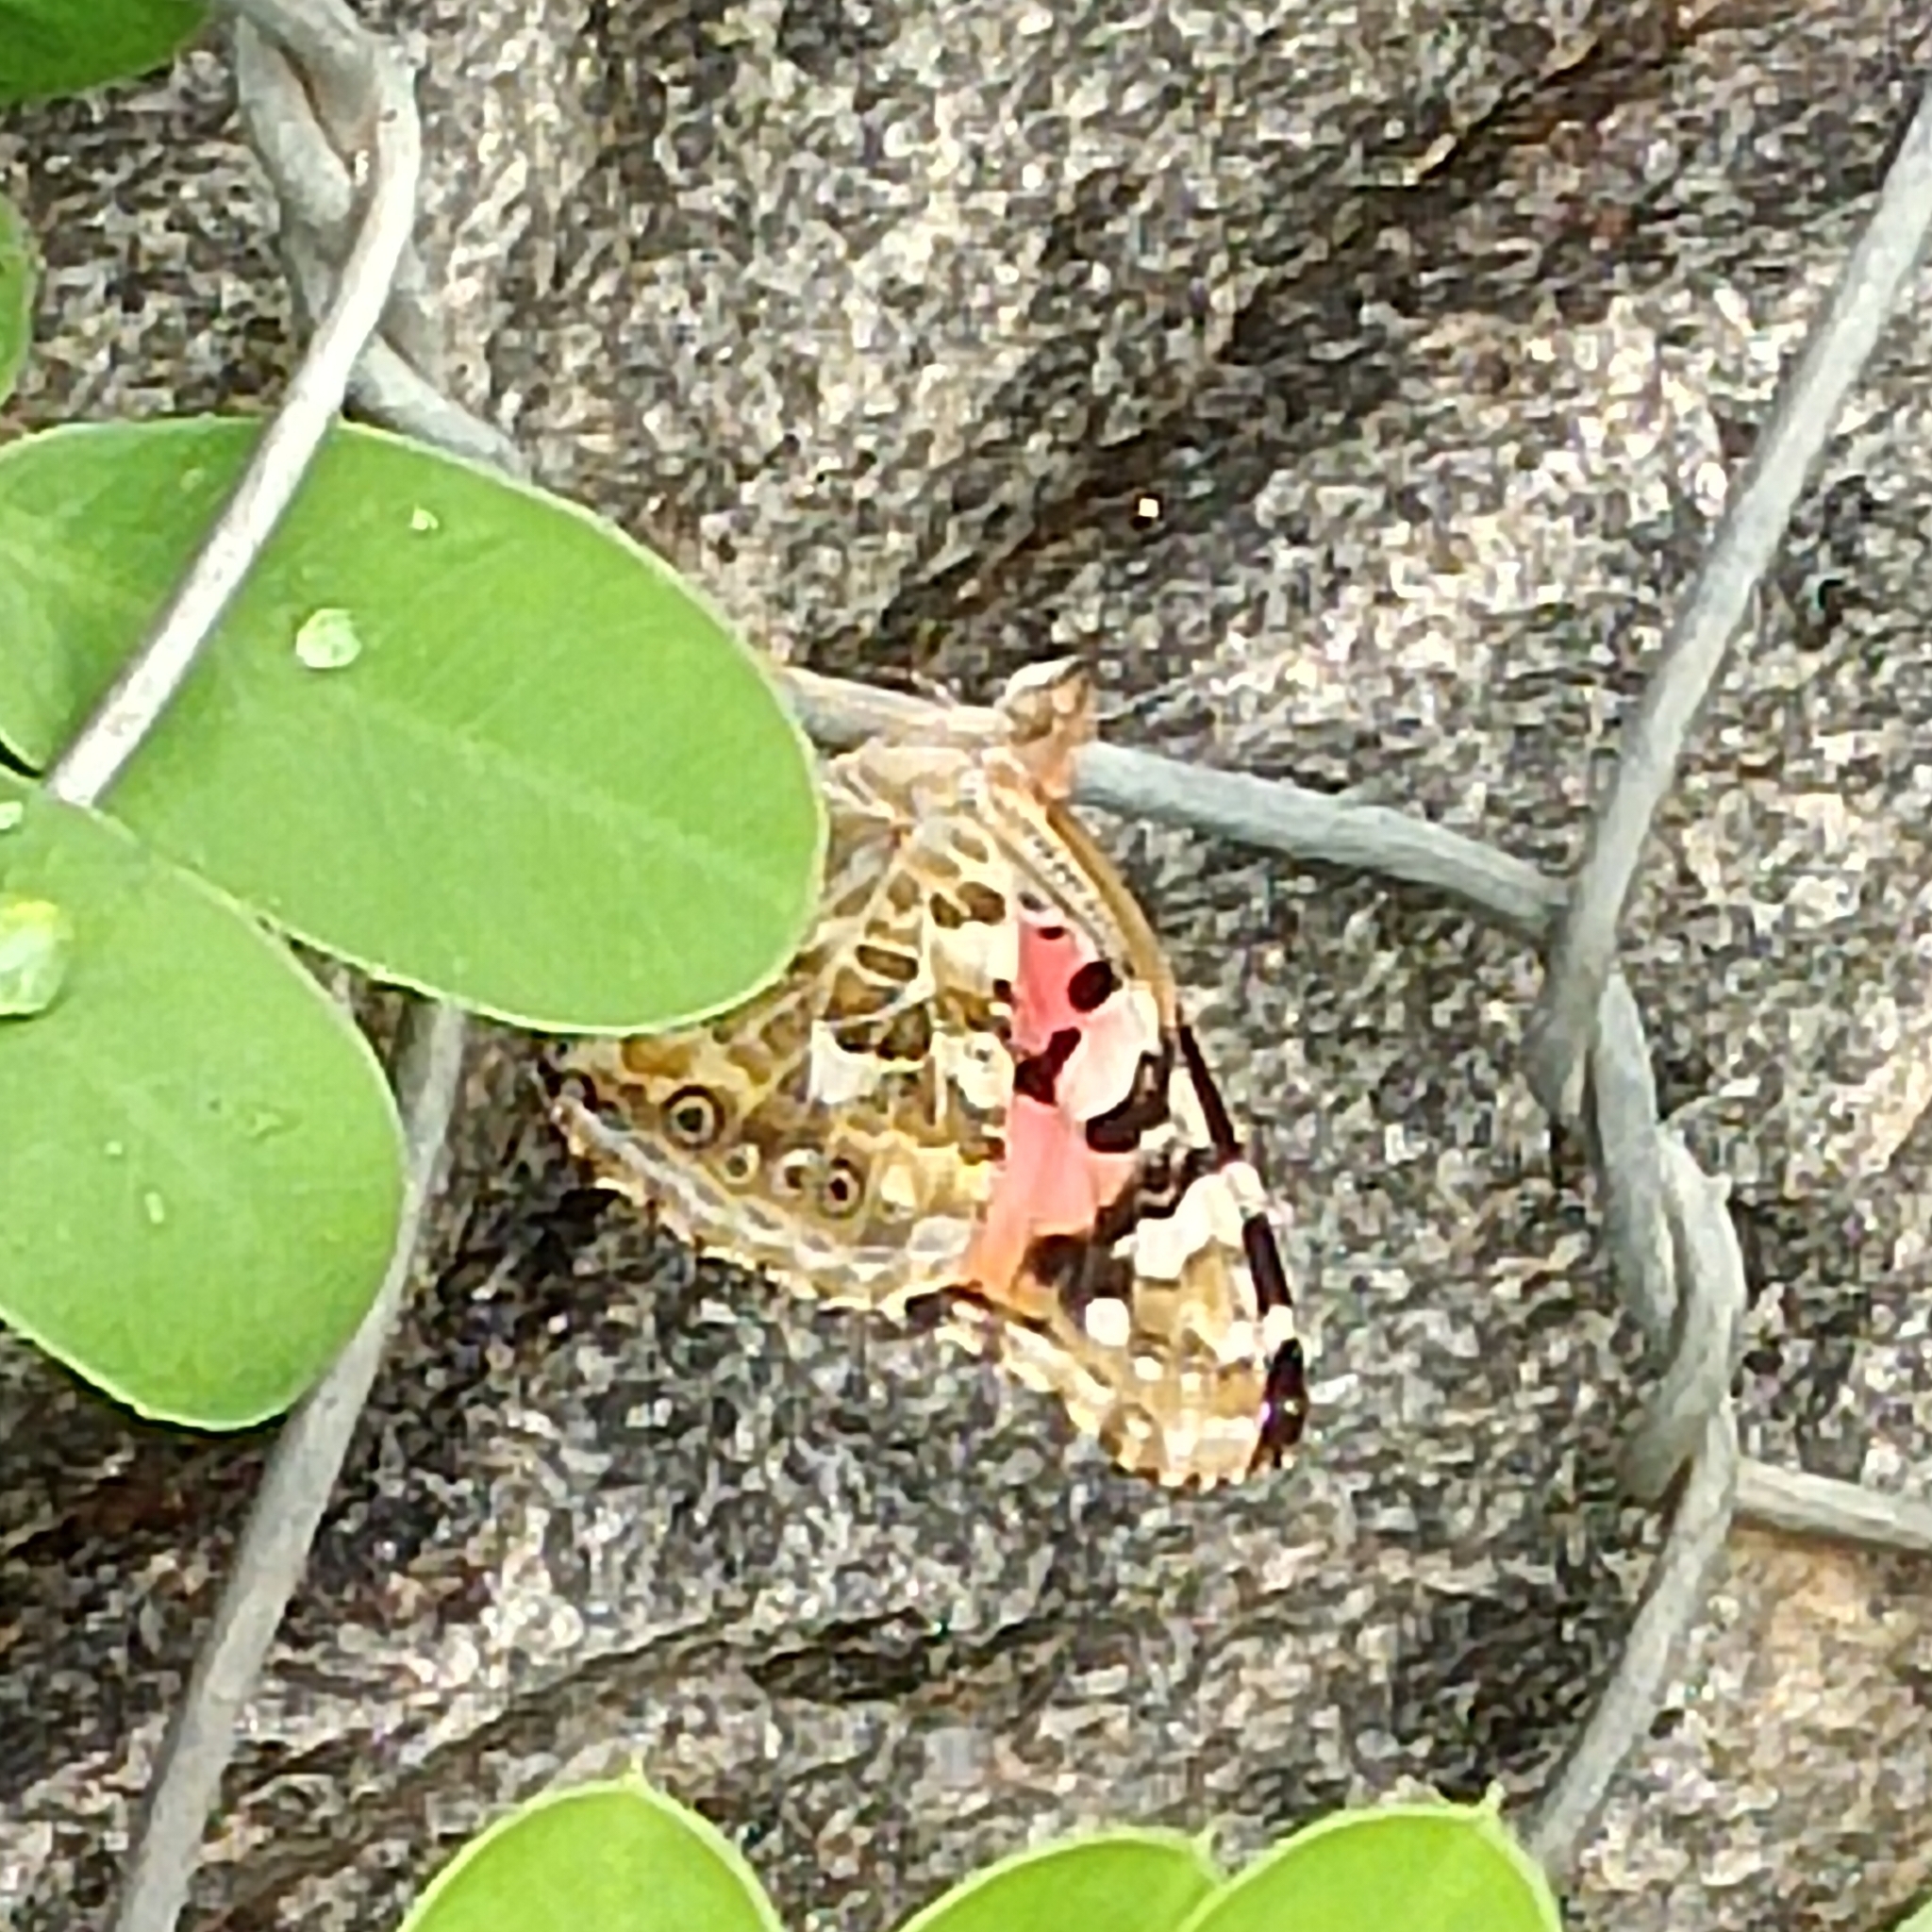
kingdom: Animalia
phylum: Arthropoda
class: Insecta
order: Lepidoptera
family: Nymphalidae
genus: Vanessa
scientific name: Vanessa cardui
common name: Painted lady
